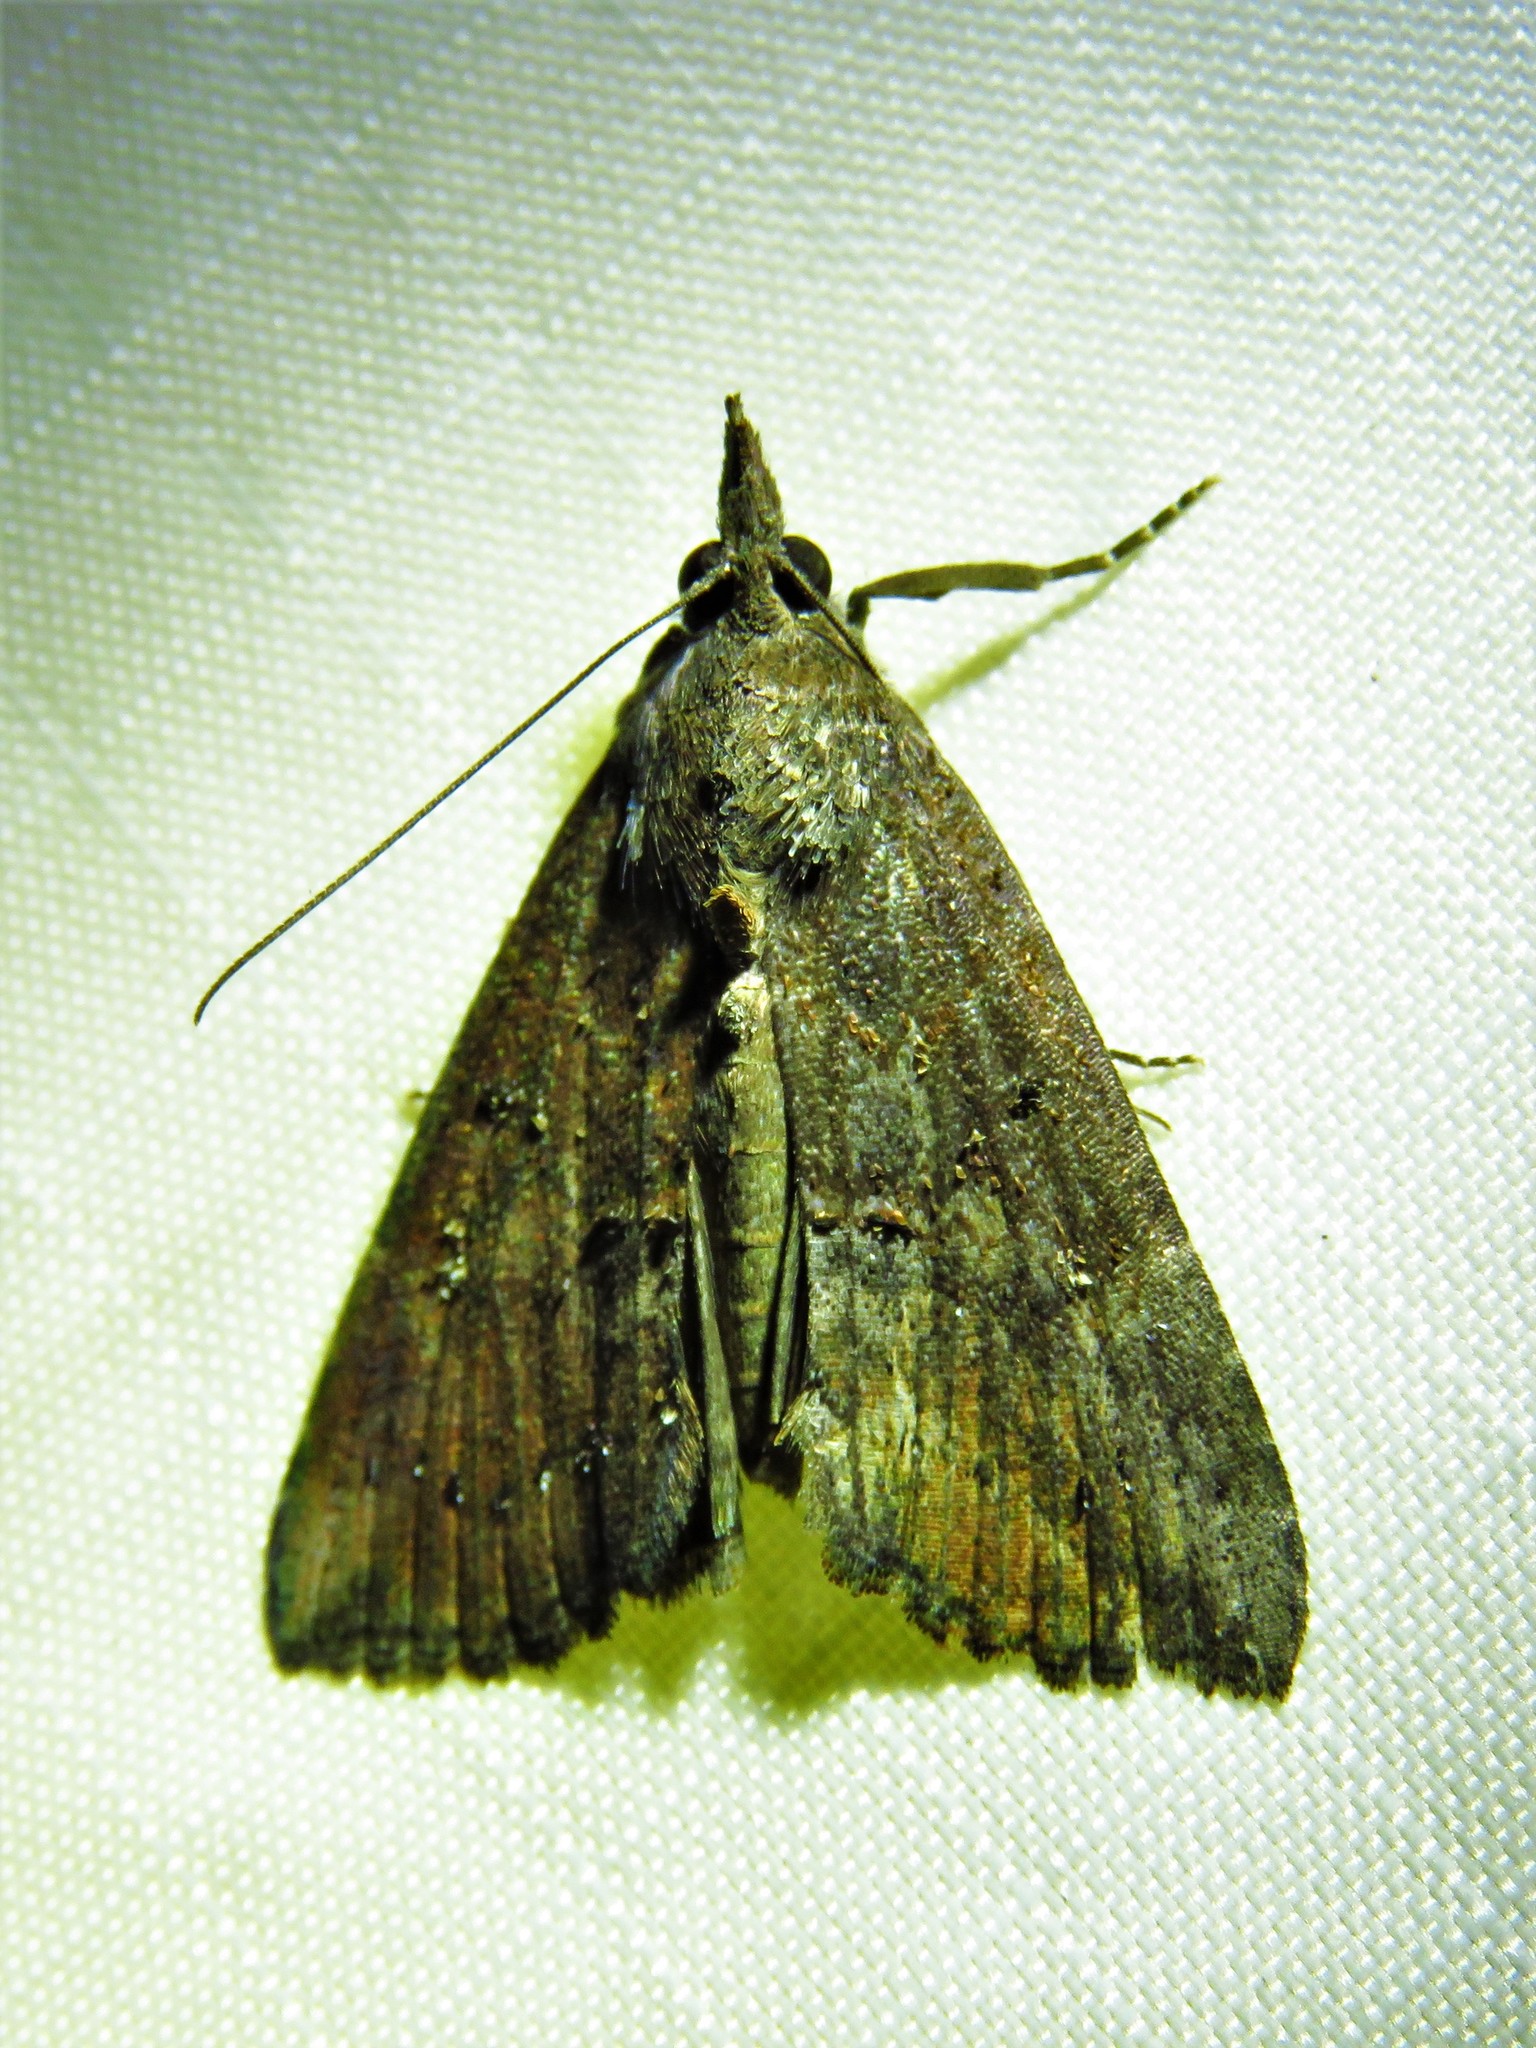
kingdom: Animalia
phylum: Arthropoda
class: Insecta
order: Lepidoptera
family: Erebidae
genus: Hypena
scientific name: Hypena scabra
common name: Green cloverworm
